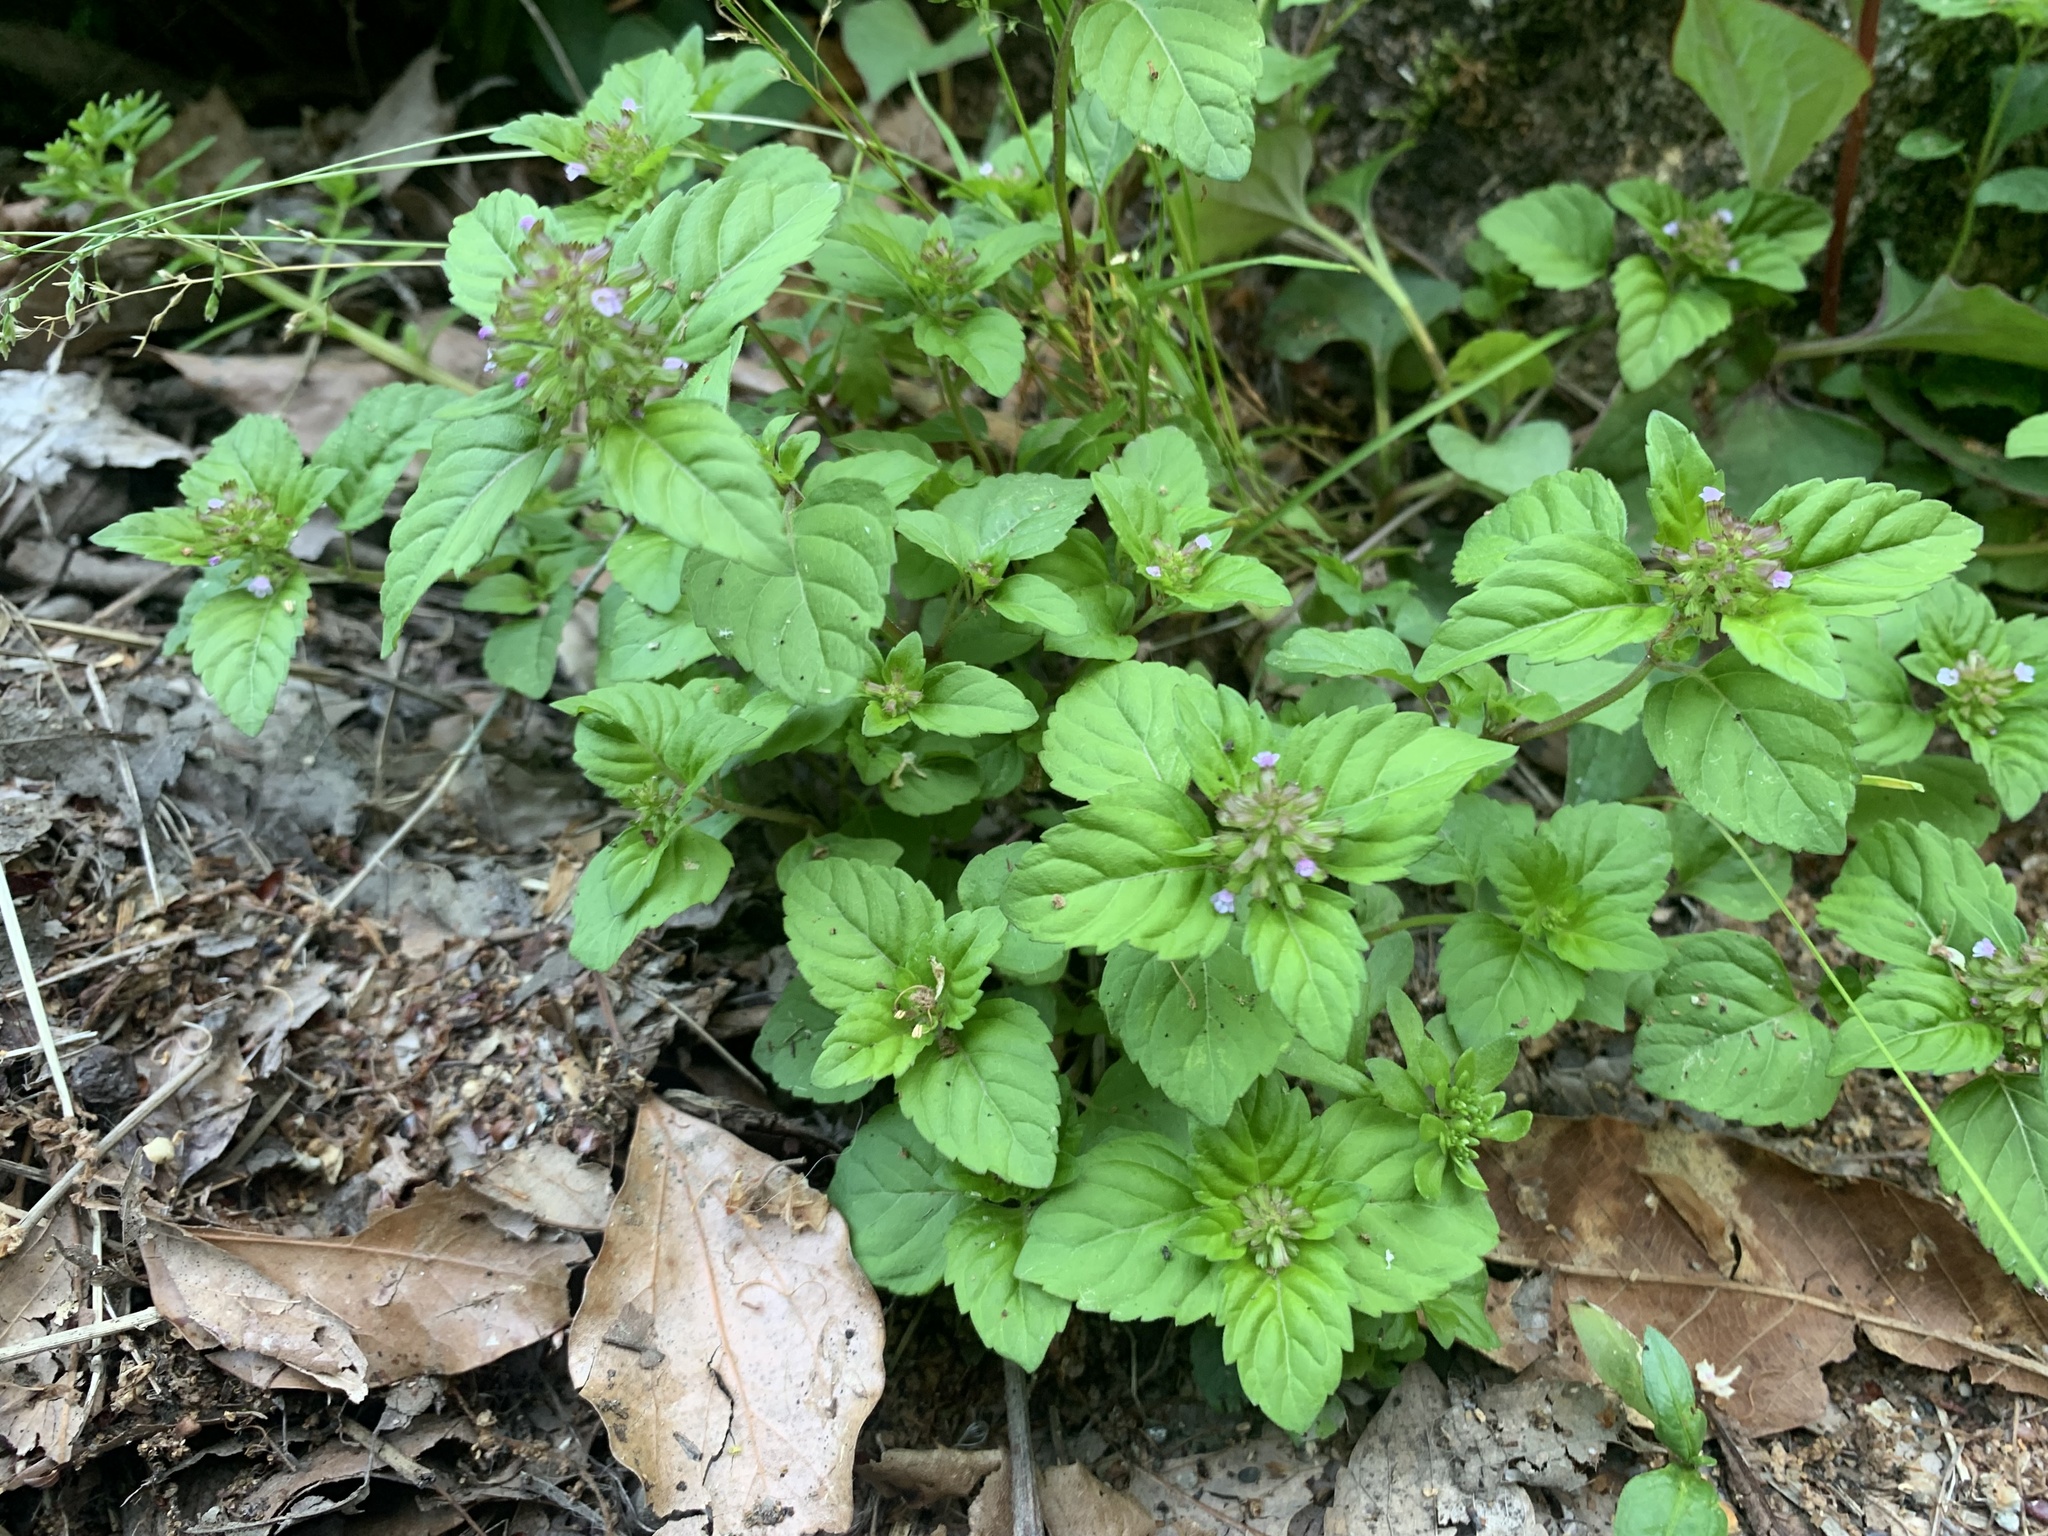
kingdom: Plantae
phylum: Tracheophyta
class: Magnoliopsida
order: Lamiales
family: Lamiaceae
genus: Clinopodium
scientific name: Clinopodium gracile
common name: Slender wild basil
